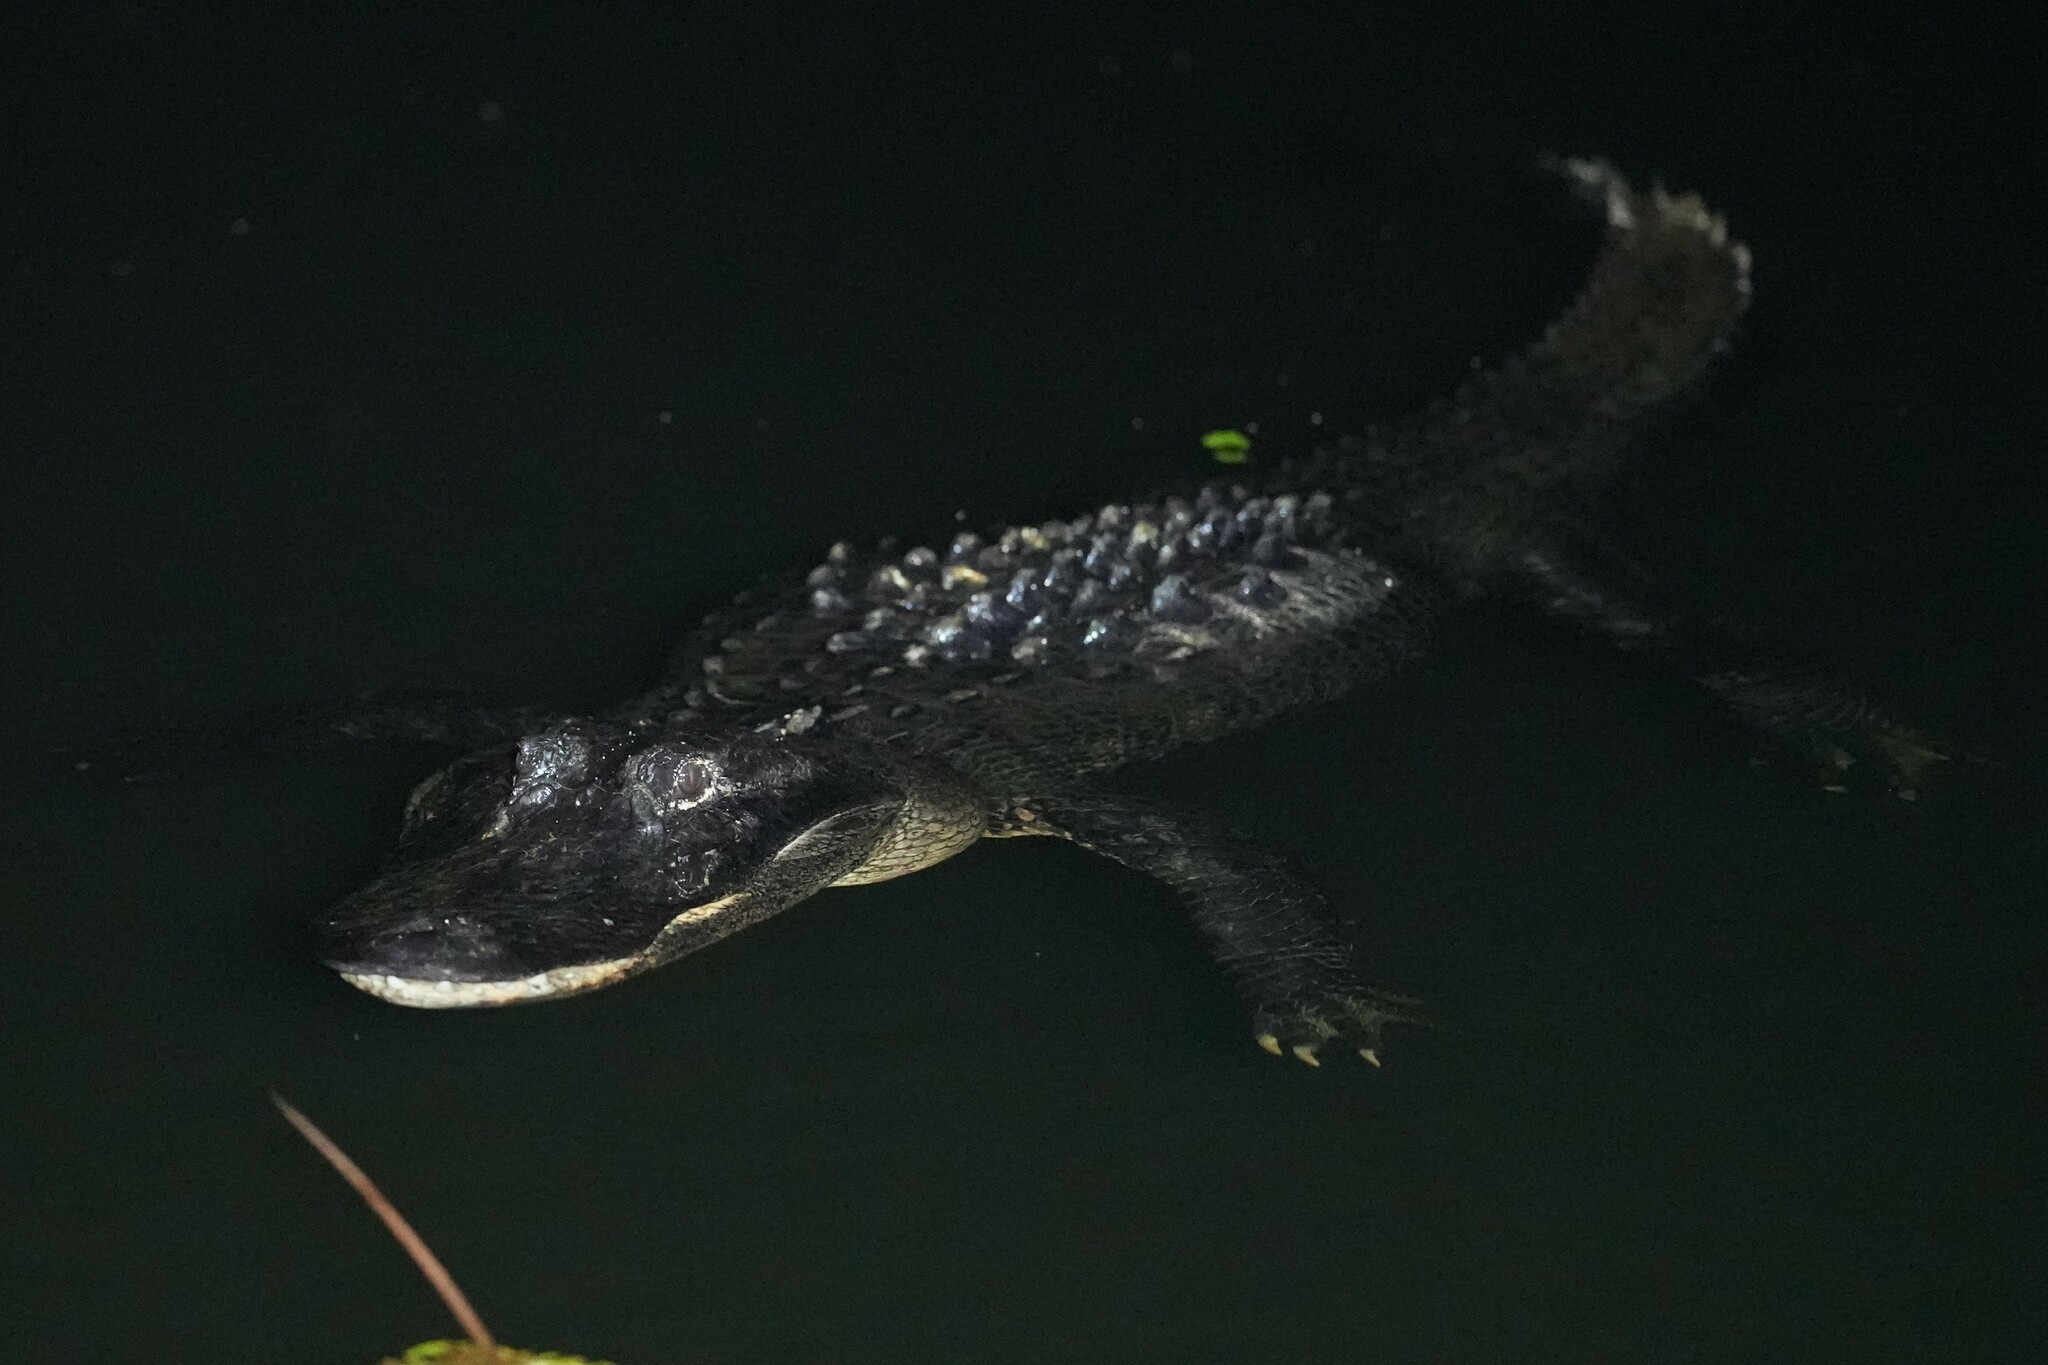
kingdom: Animalia
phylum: Chordata
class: Crocodylia
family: Alligatoridae
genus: Alligator
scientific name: Alligator mississippiensis
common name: American alligator
